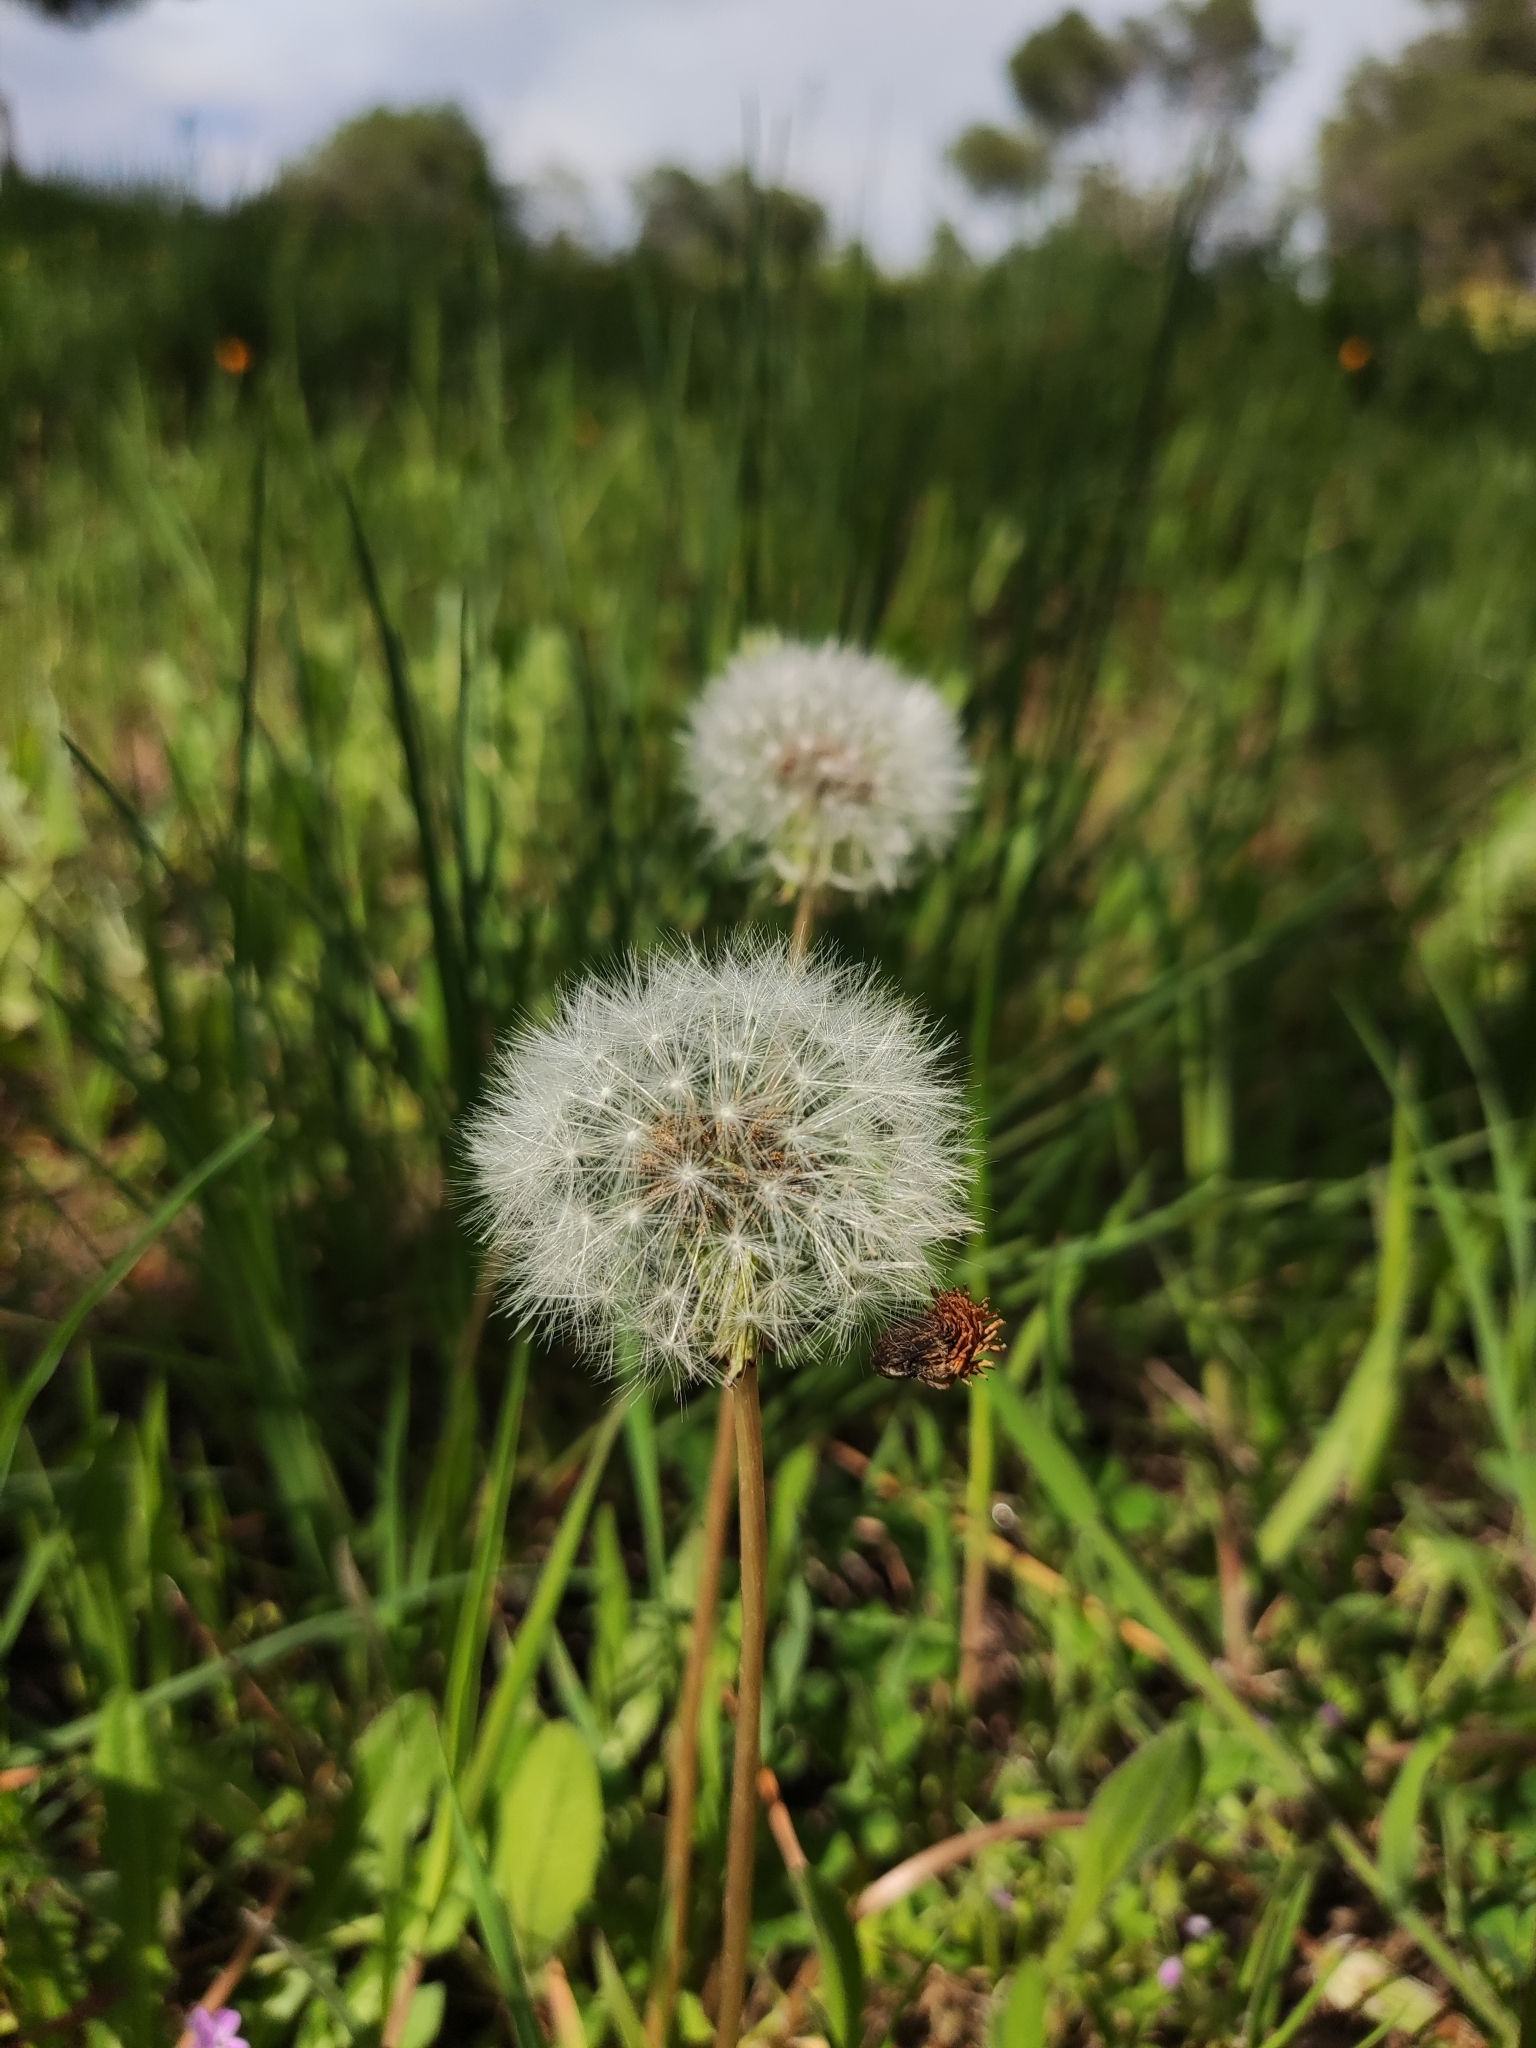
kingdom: Plantae
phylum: Tracheophyta
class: Magnoliopsida
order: Asterales
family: Asteraceae
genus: Taraxacum
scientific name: Taraxacum erythrospermum
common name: Rock dandelion
